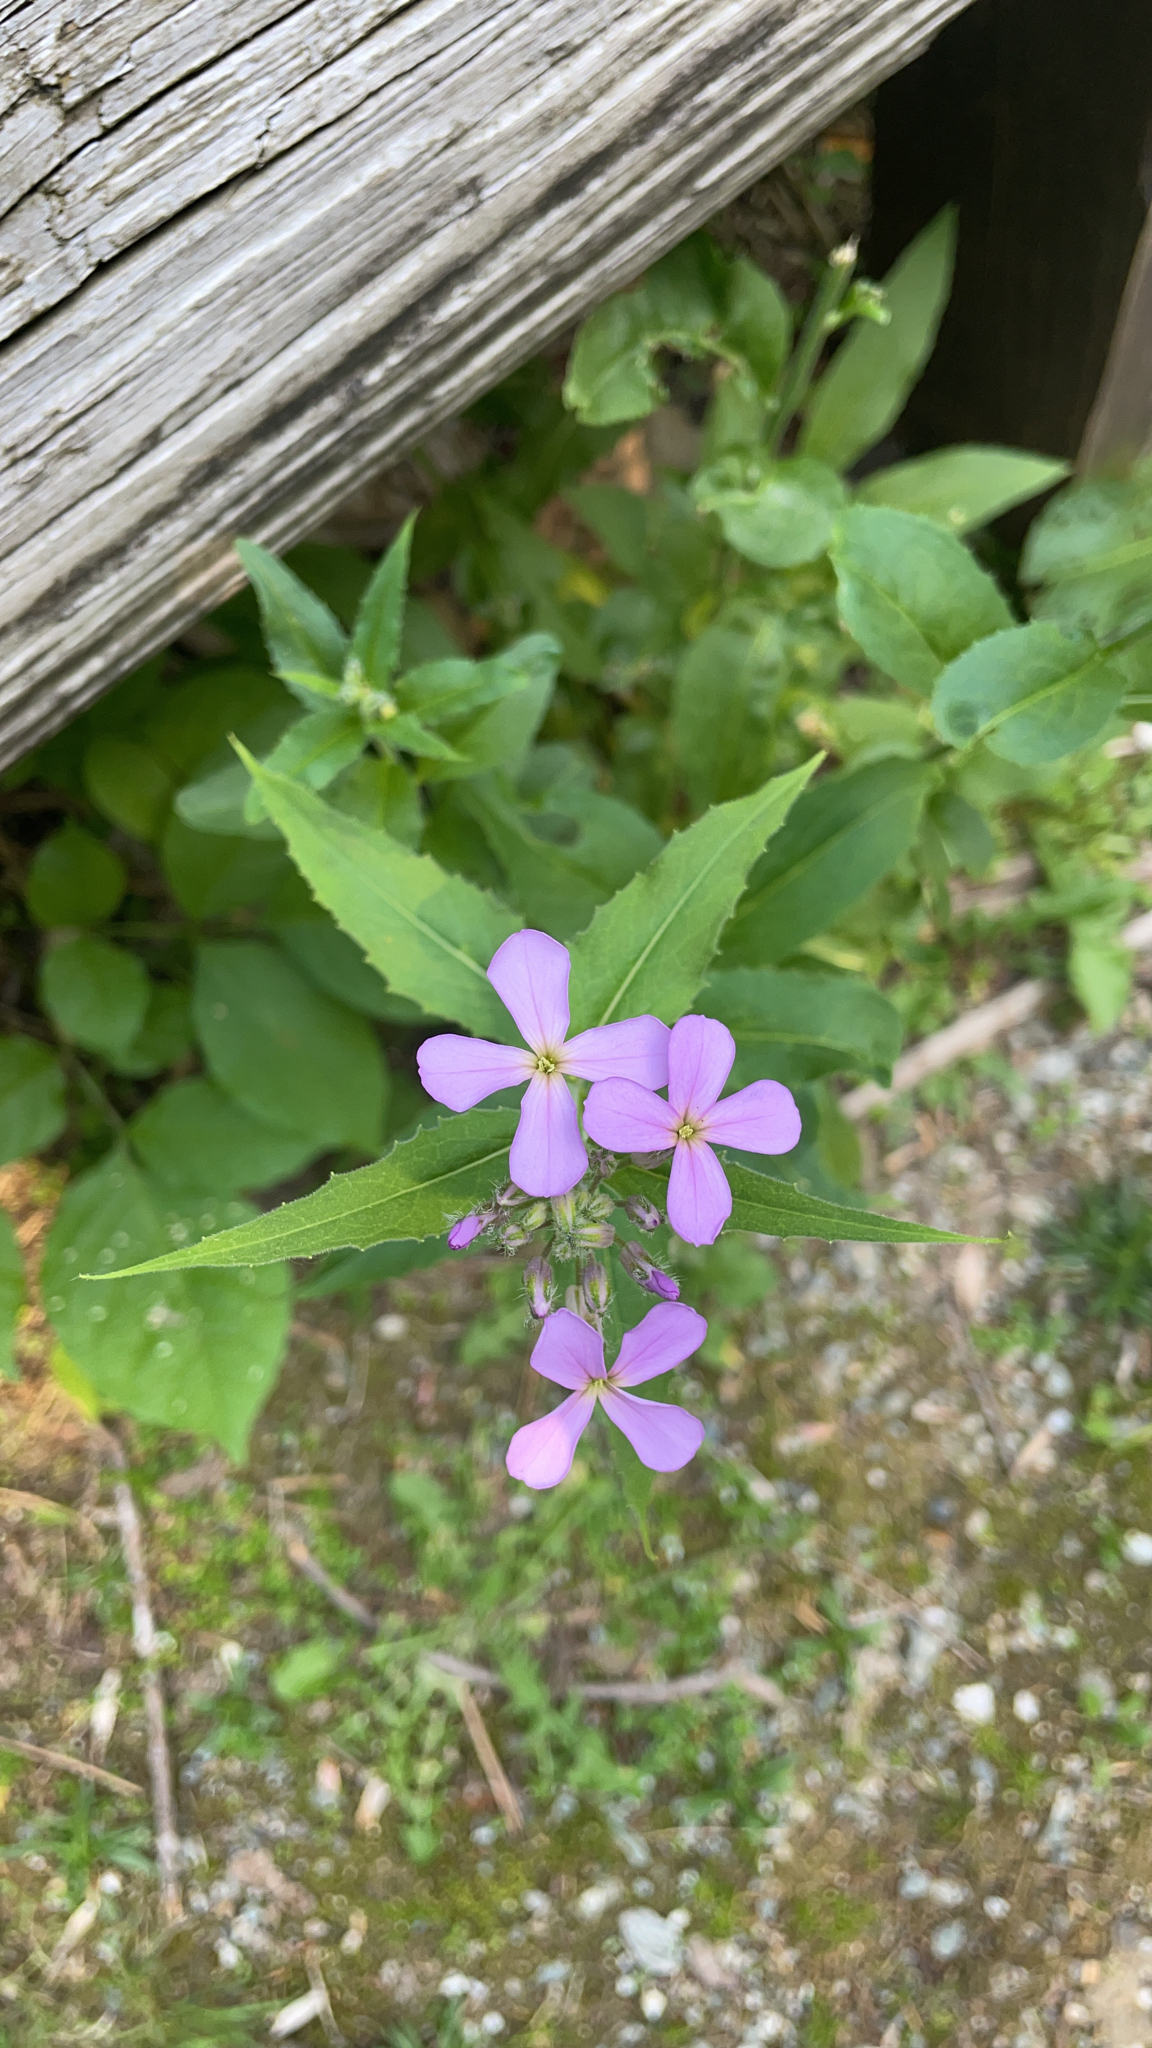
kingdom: Plantae
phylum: Tracheophyta
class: Magnoliopsida
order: Brassicales
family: Brassicaceae
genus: Hesperis
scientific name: Hesperis matronalis
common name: Dame's-violet
